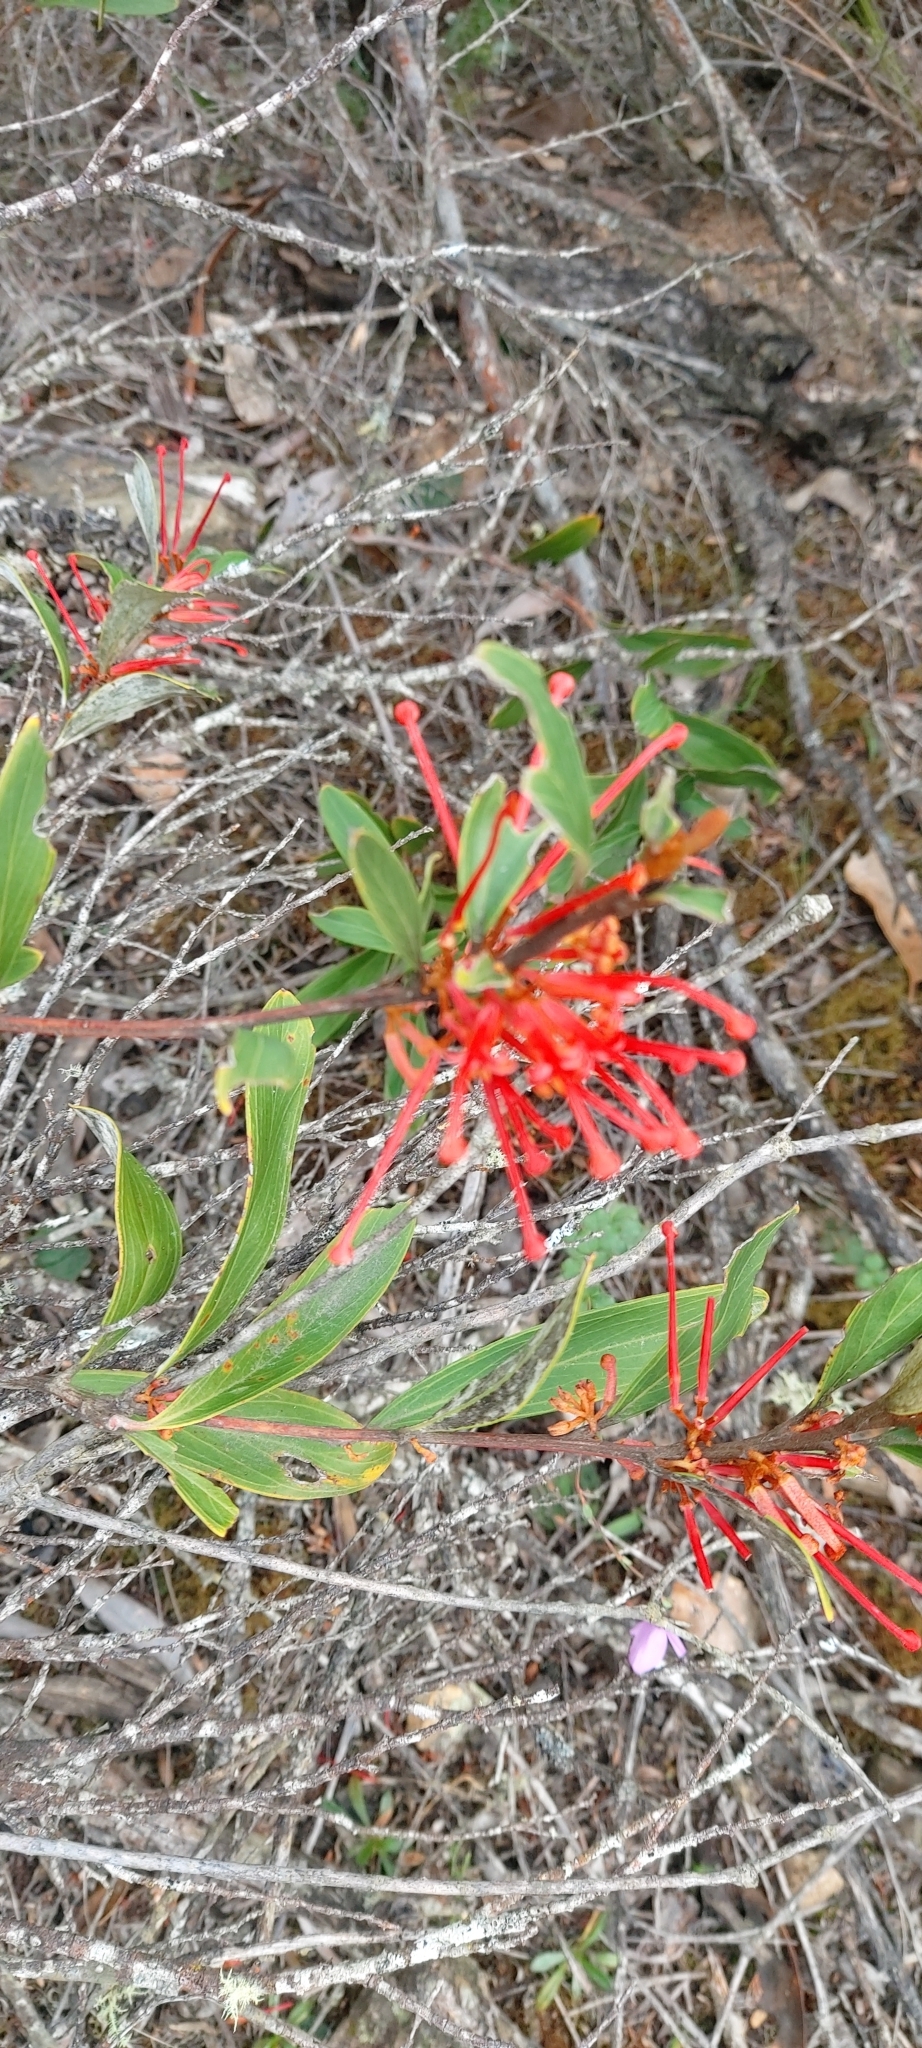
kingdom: Plantae
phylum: Tracheophyta
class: Magnoliopsida
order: Proteales
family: Proteaceae
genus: Grevillea
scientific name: Grevillea dimorpha
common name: Flame grevillea
